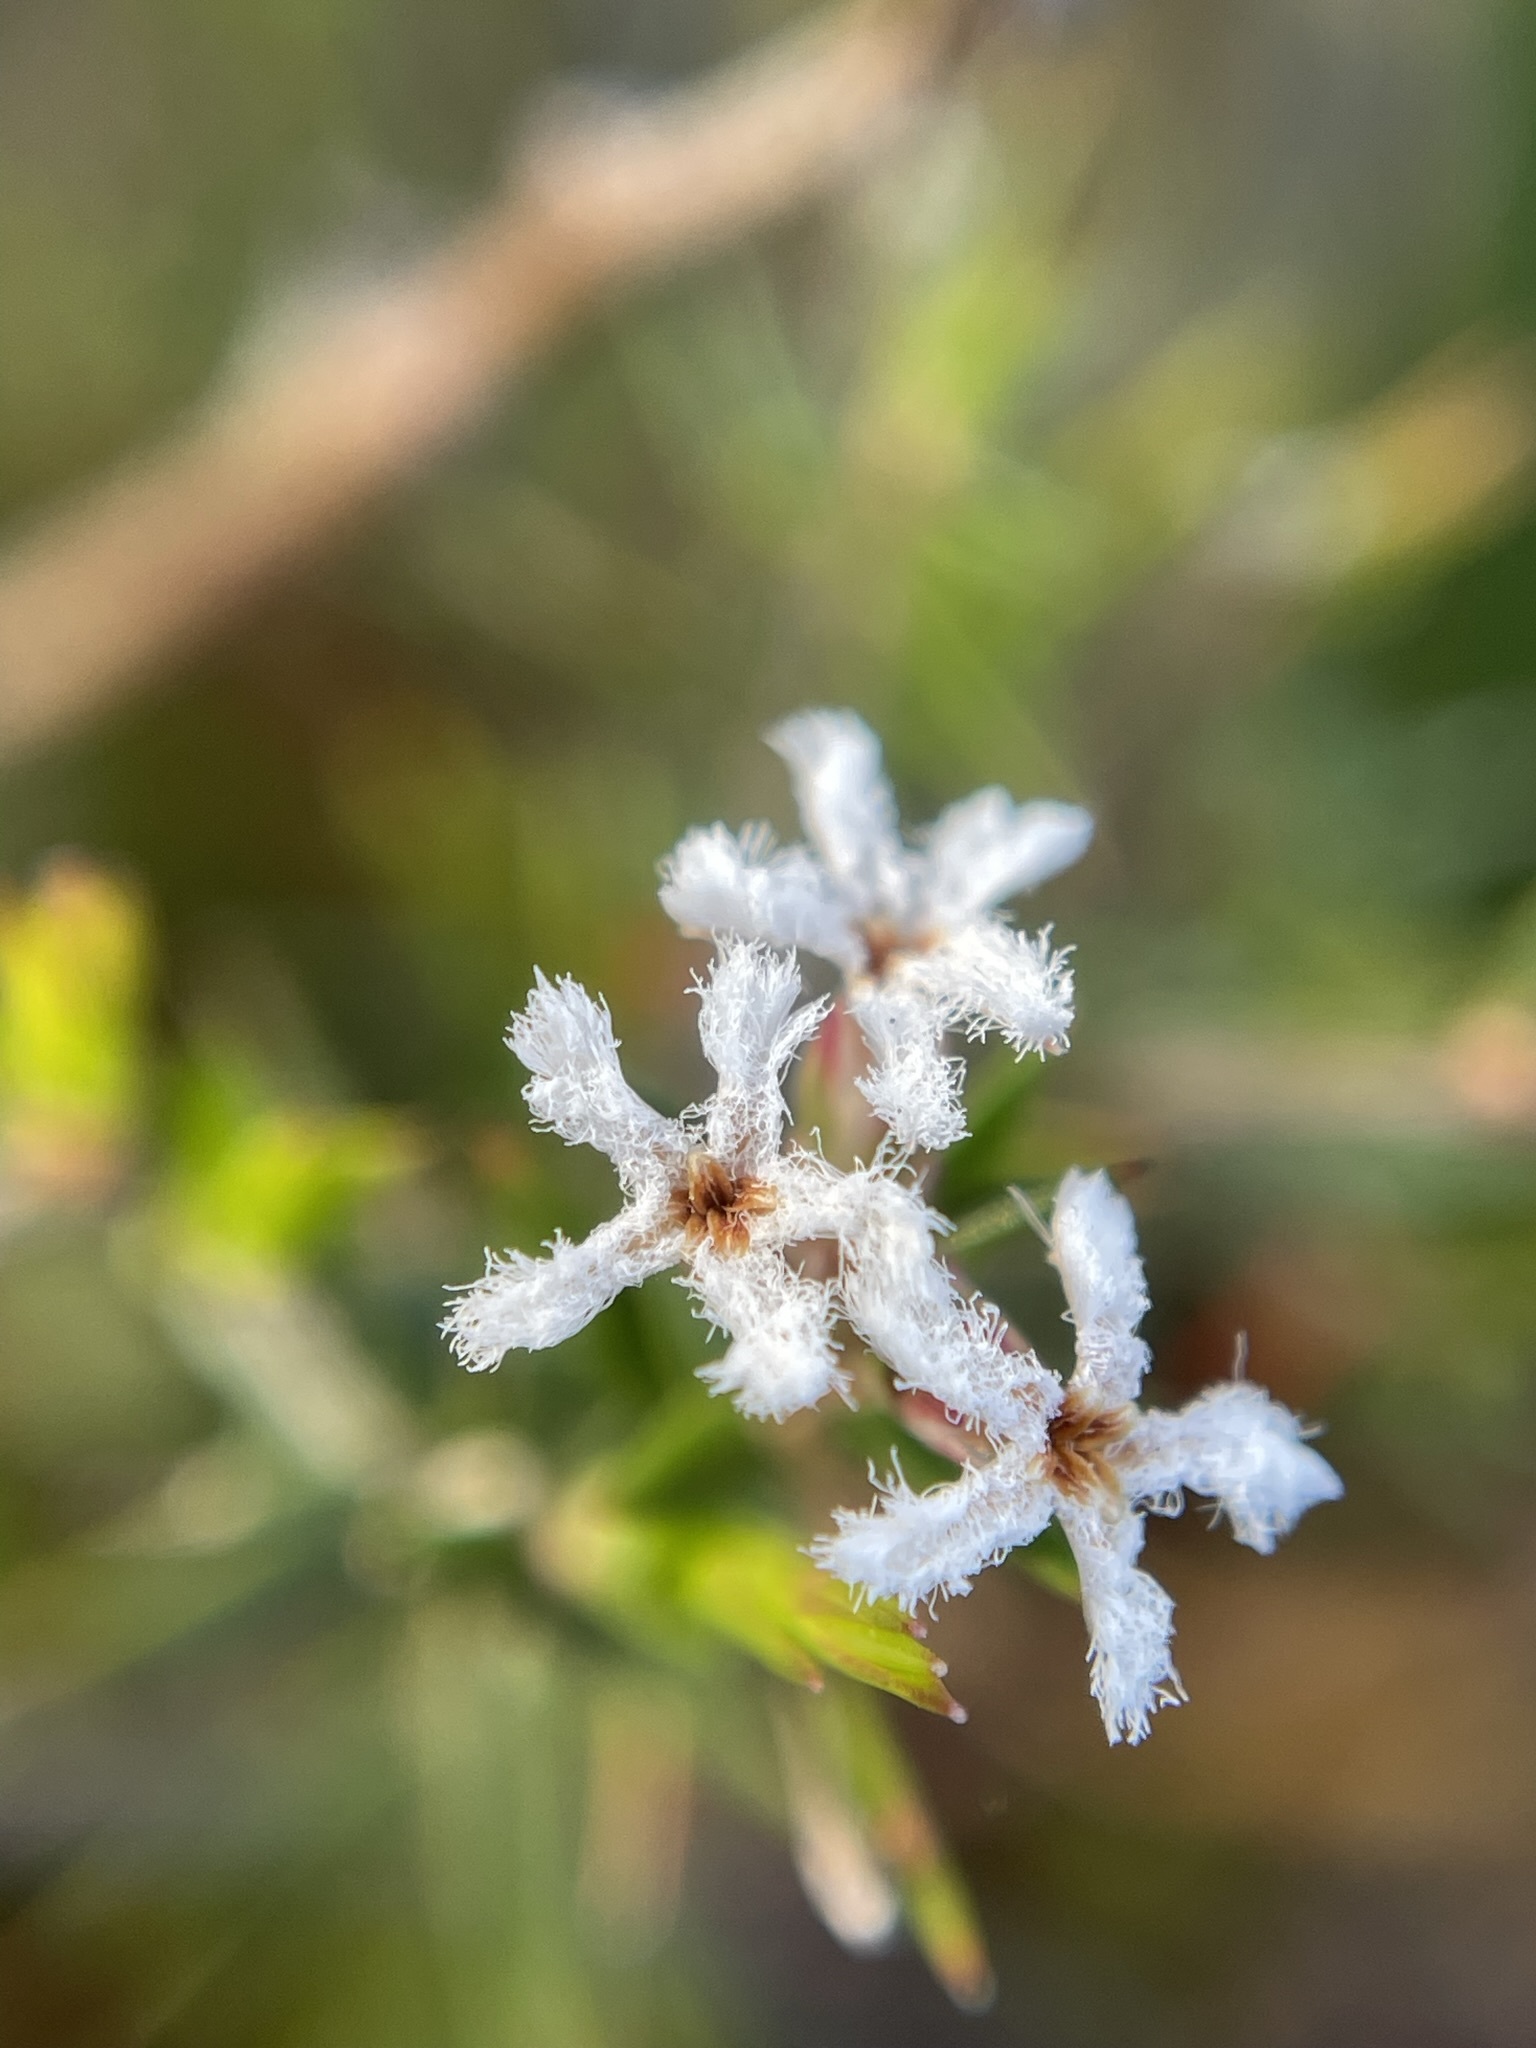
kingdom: Plantae
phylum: Tracheophyta
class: Magnoliopsida
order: Ericales
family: Ericaceae
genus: Leucopogon
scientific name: Leucopogon virgatus
